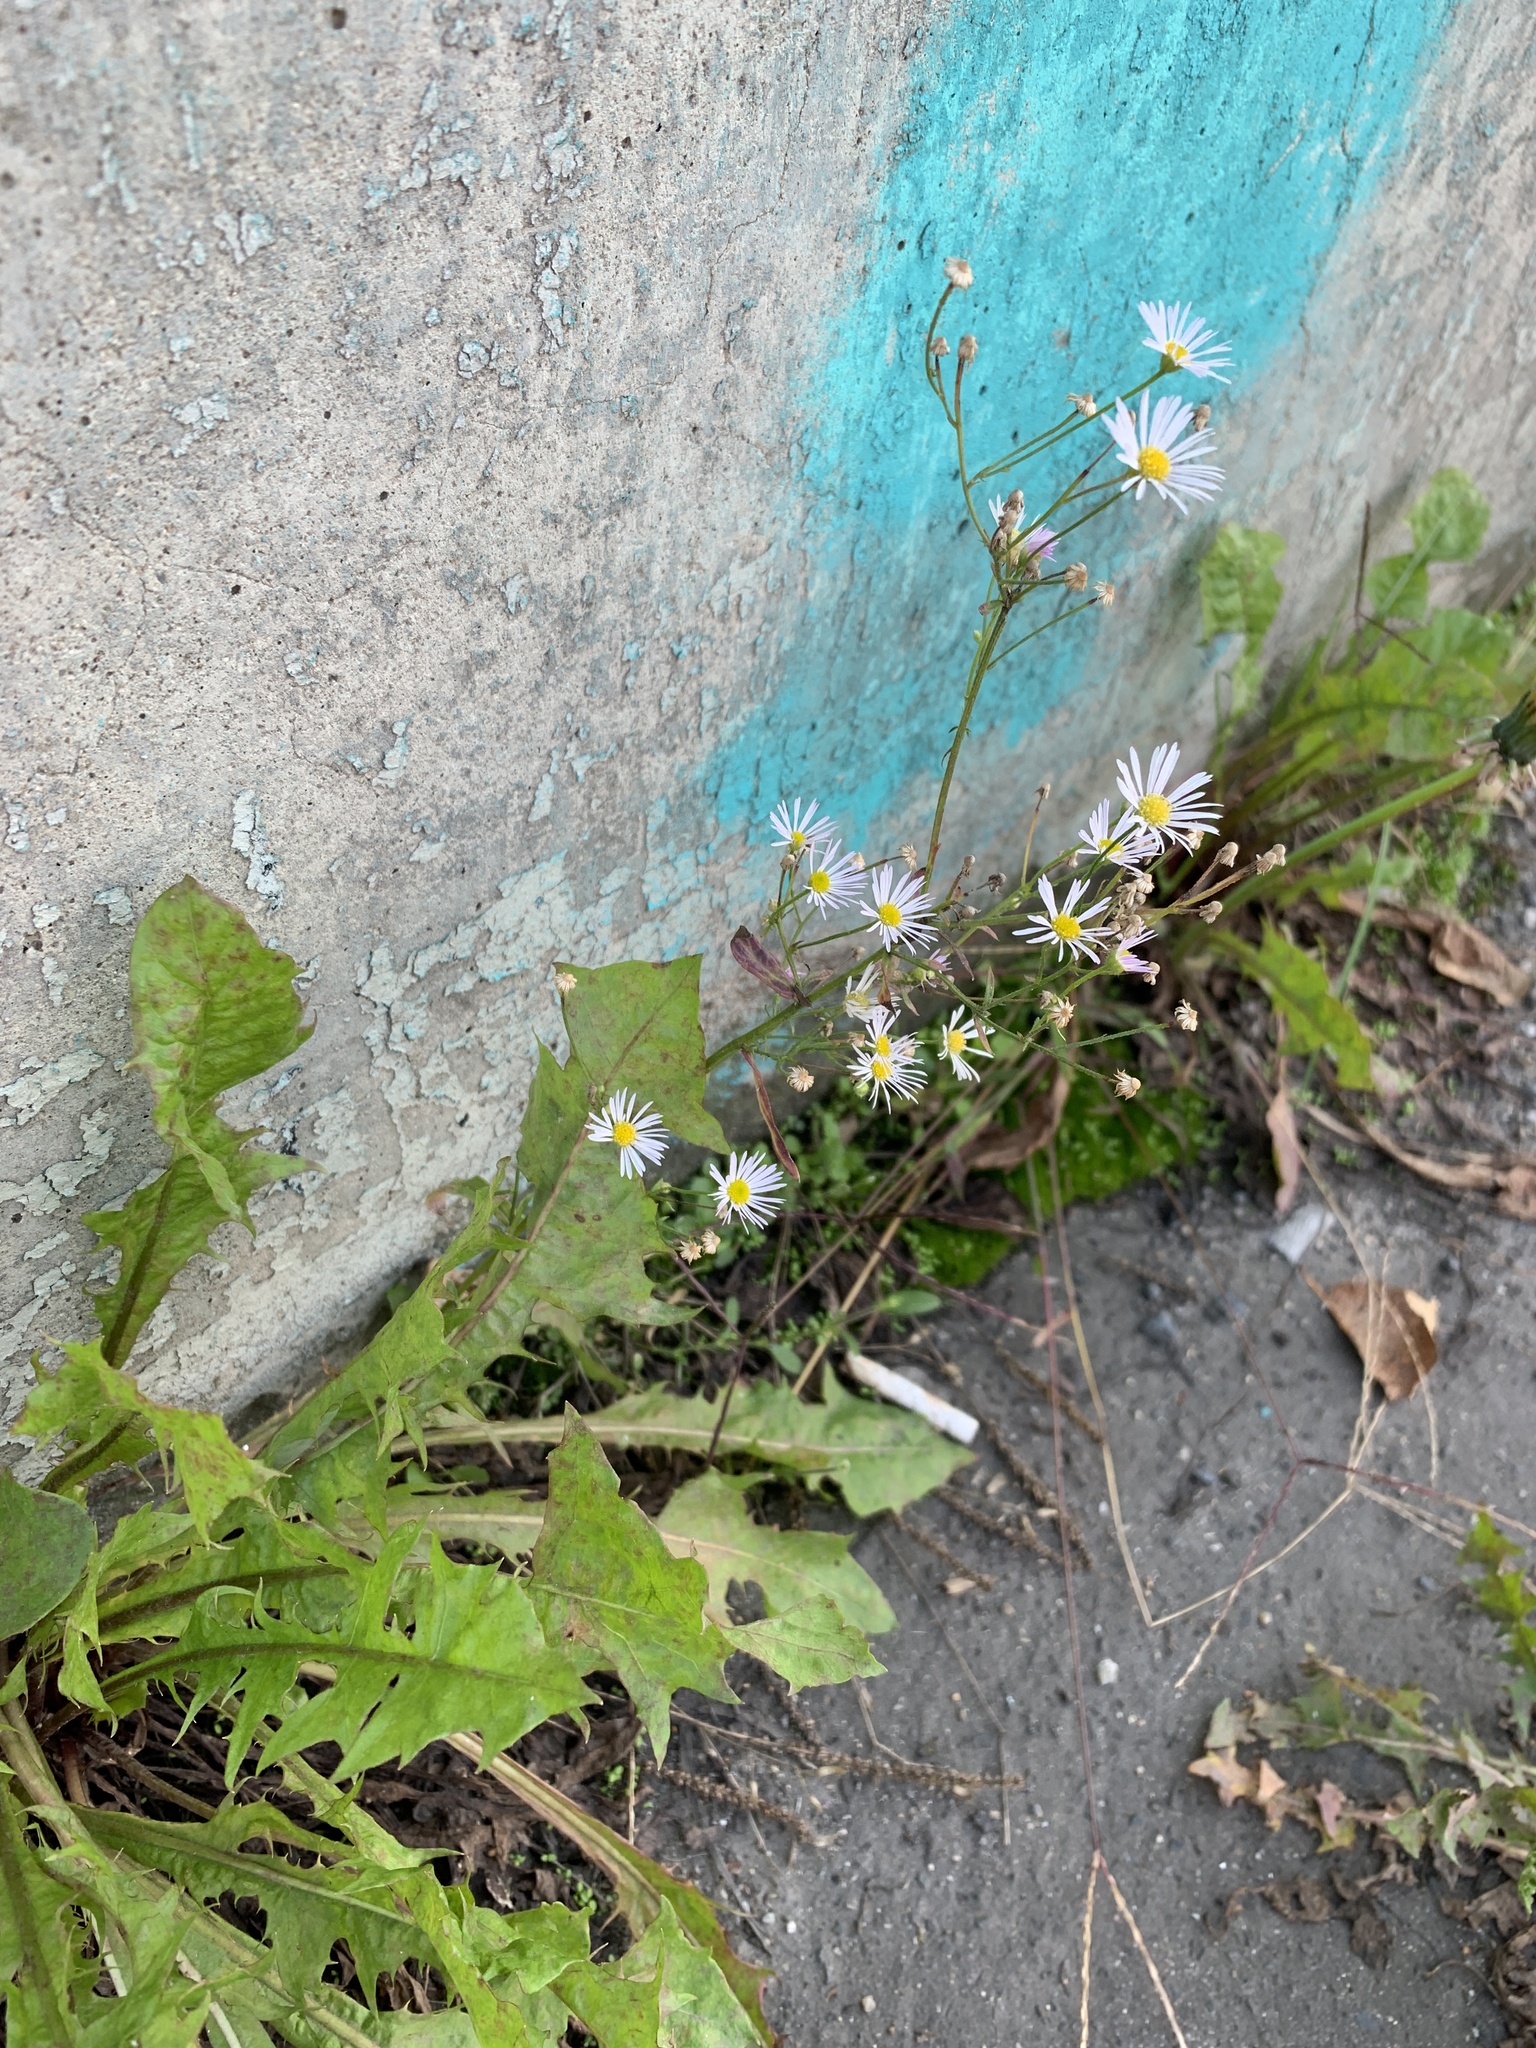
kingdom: Plantae
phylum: Tracheophyta
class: Magnoliopsida
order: Asterales
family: Asteraceae
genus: Erigeron
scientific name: Erigeron annuus
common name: Tall fleabane
